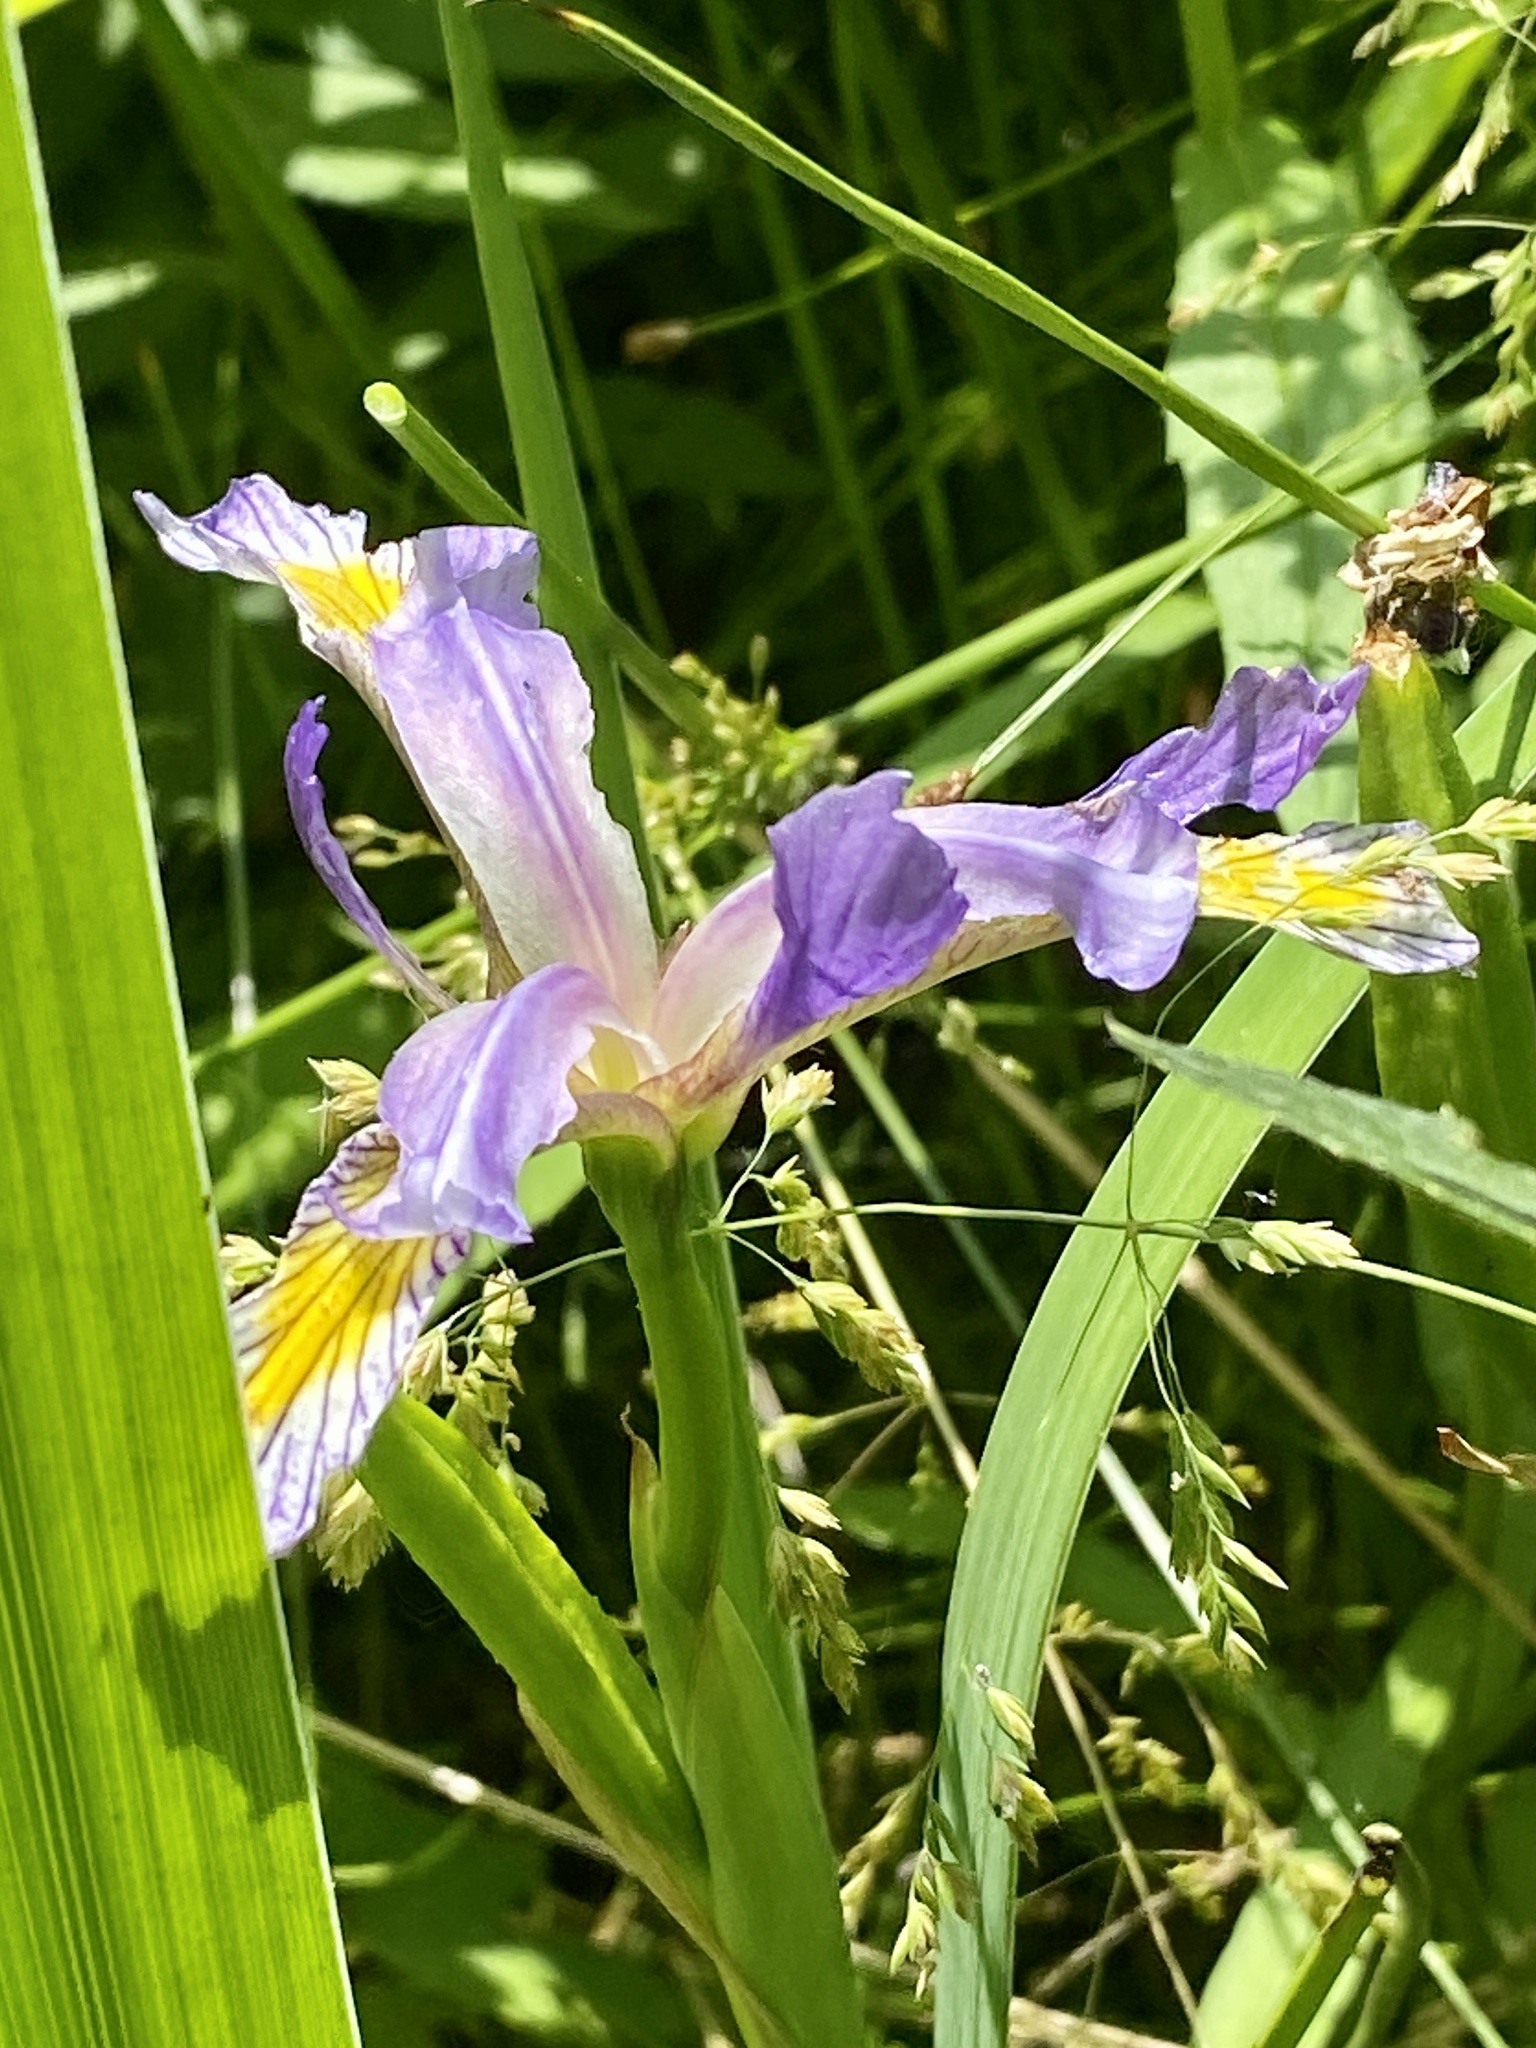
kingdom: Plantae
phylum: Tracheophyta
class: Liliopsida
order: Asparagales
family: Iridaceae
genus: Iris
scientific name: Iris versicolor
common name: Purple iris
